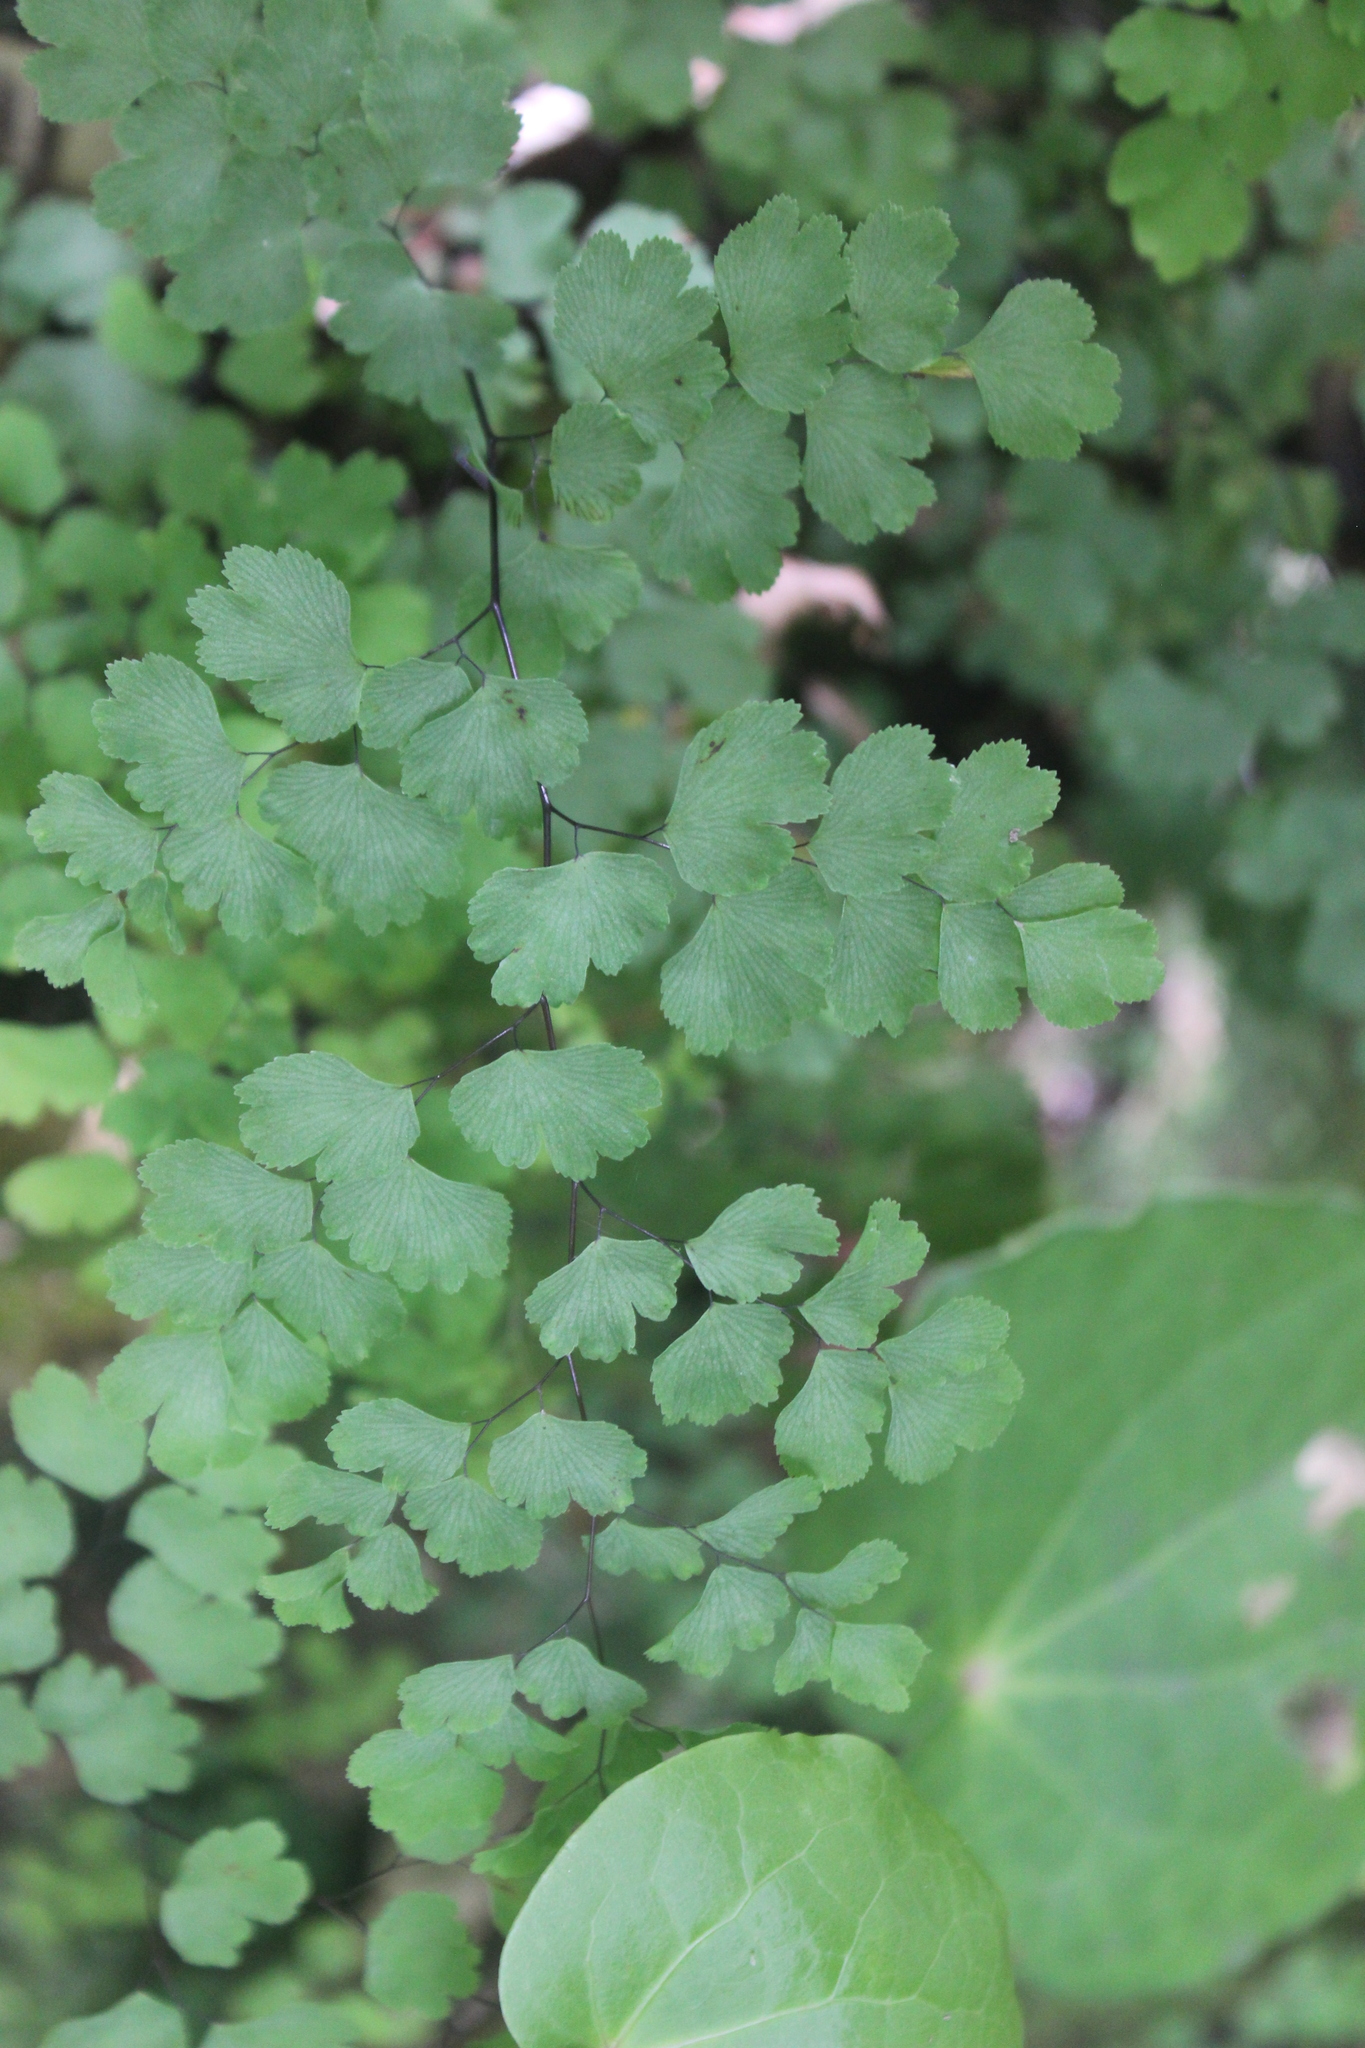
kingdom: Plantae
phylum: Tracheophyta
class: Polypodiopsida
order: Polypodiales
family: Pteridaceae
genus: Adiantum
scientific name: Adiantum raddianum
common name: Delta maidenhair fern
